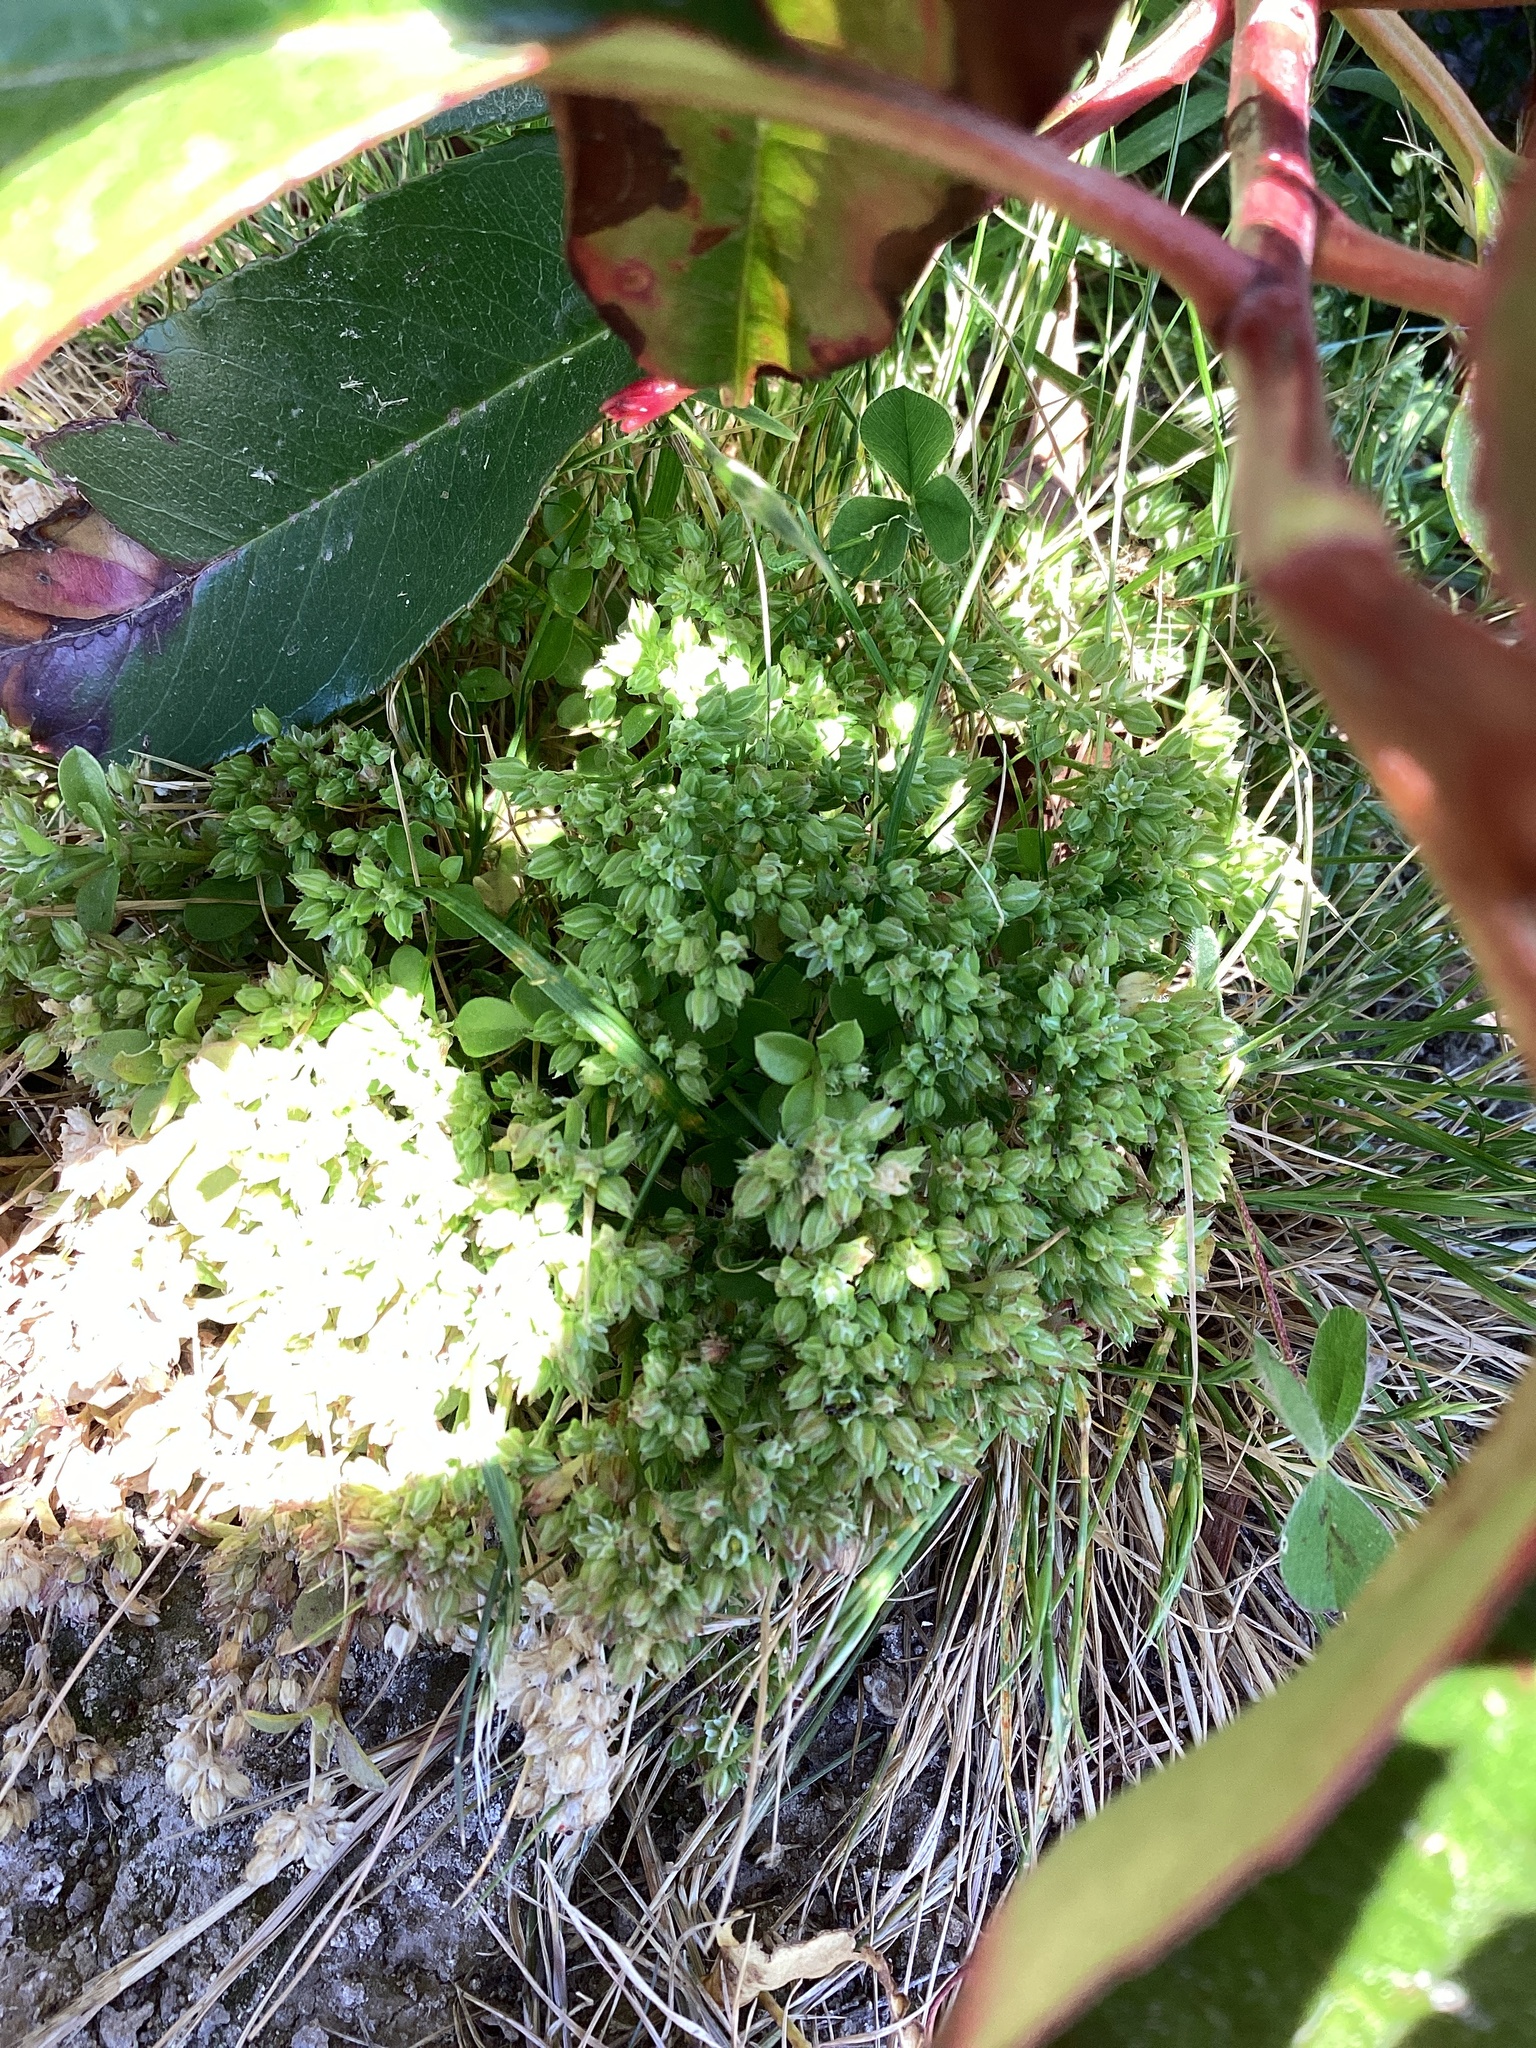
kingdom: Plantae
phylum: Tracheophyta
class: Magnoliopsida
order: Caryophyllales
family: Caryophyllaceae
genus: Polycarpon
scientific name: Polycarpon tetraphyllum
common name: Four-leaved all-seed
